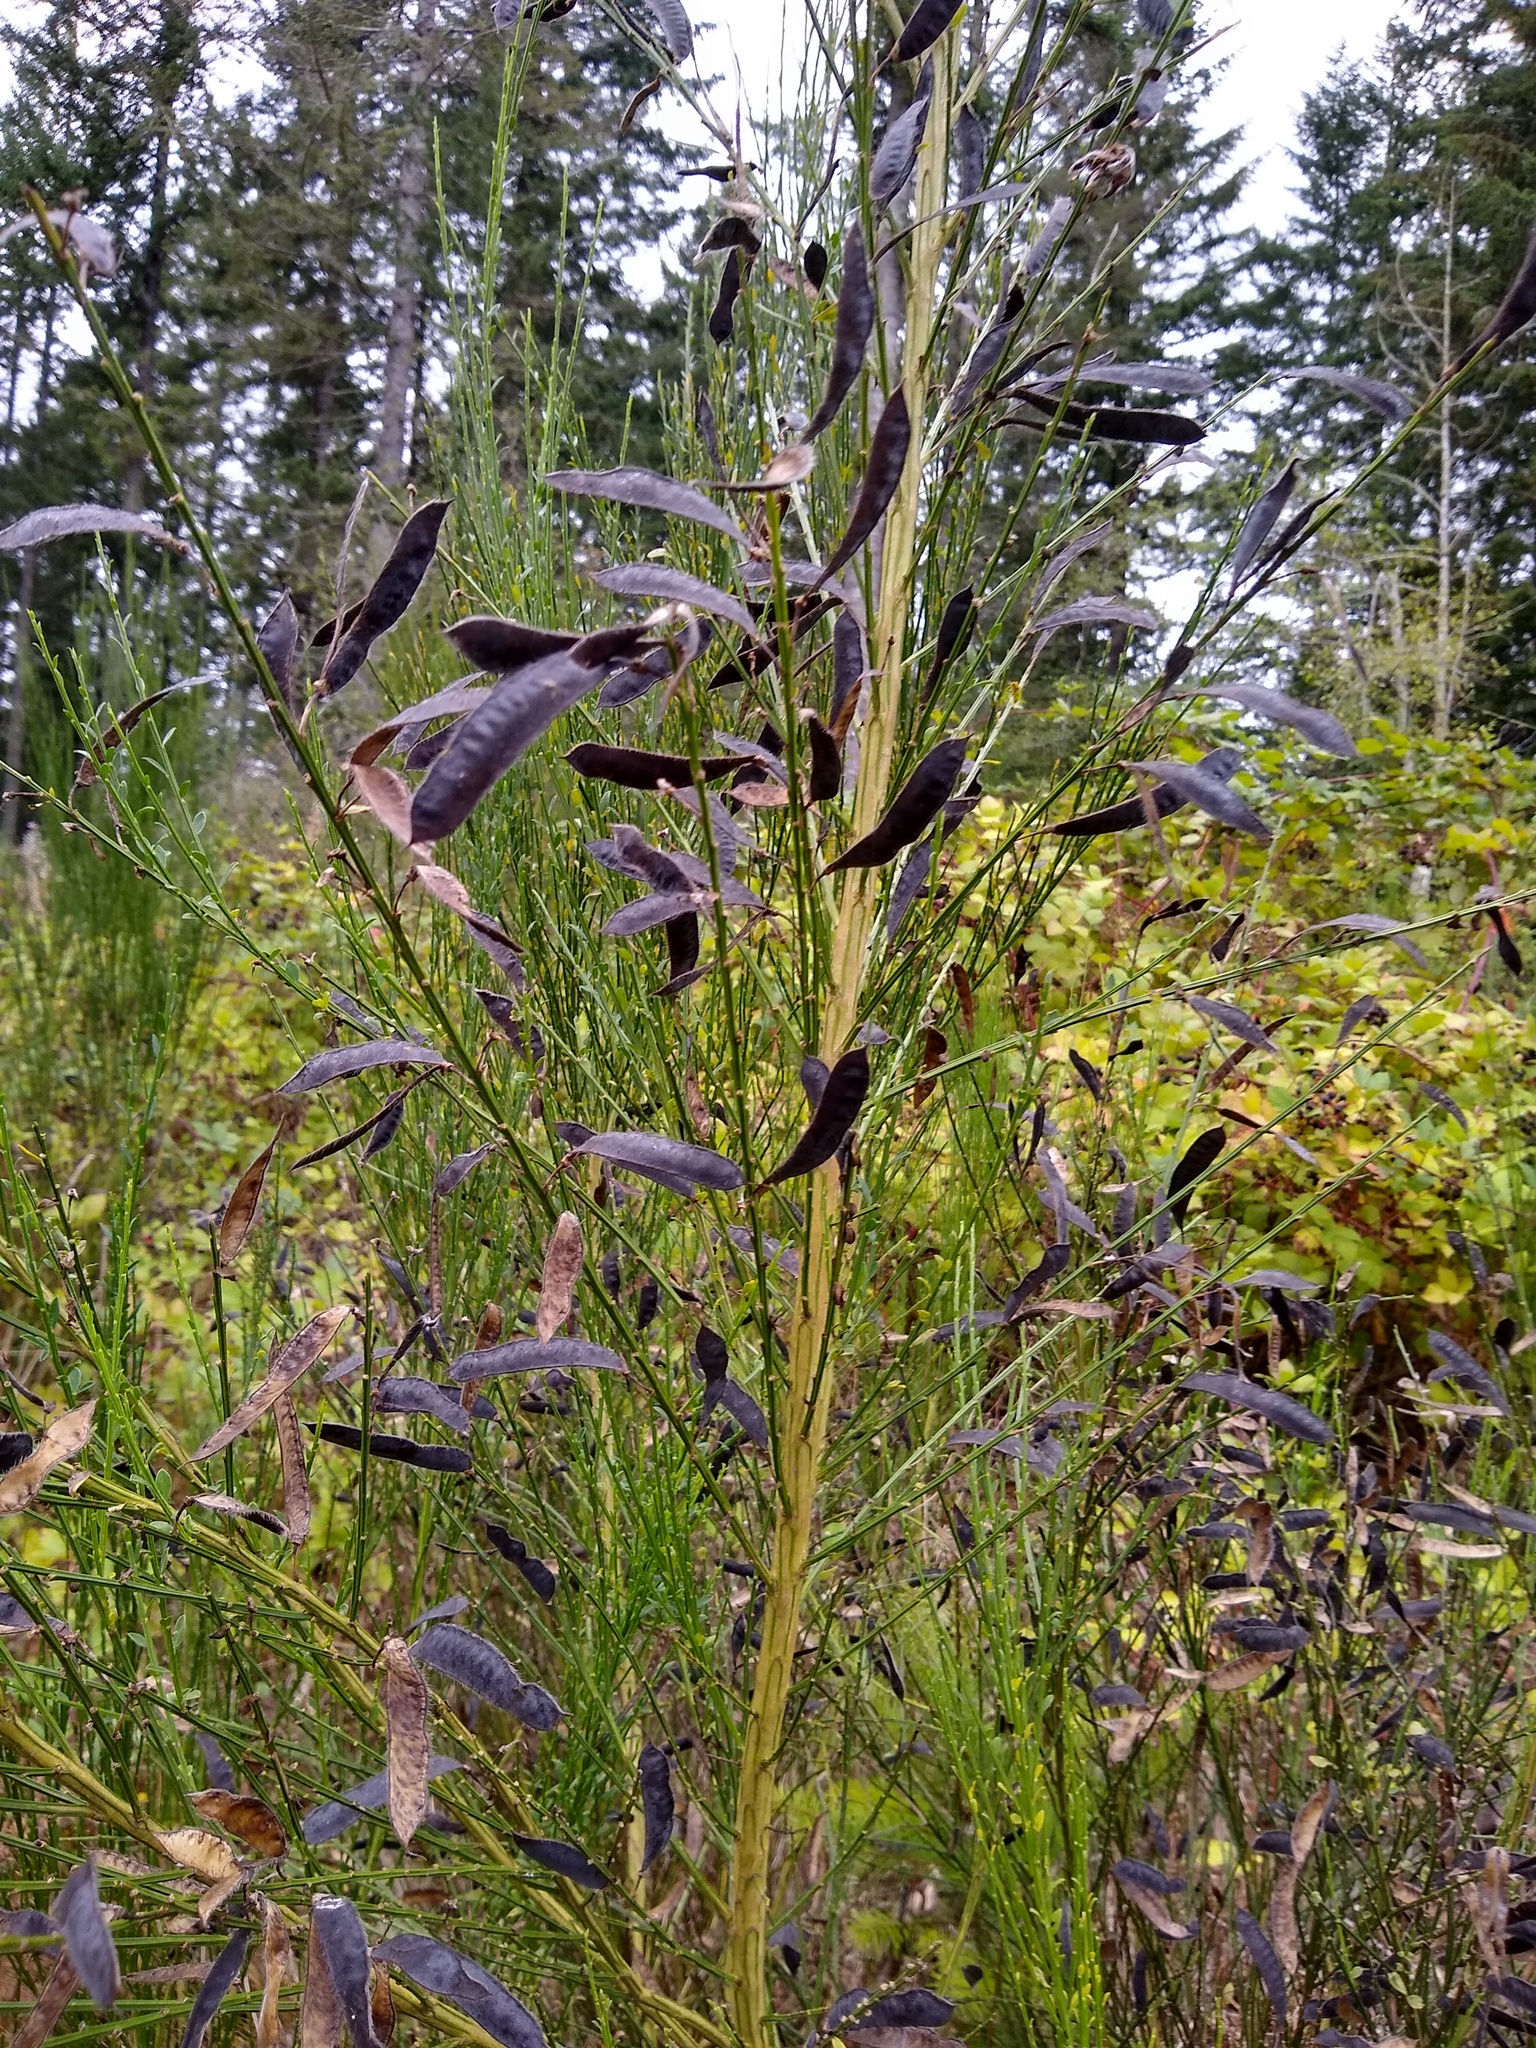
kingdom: Plantae
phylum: Tracheophyta
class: Magnoliopsida
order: Fabales
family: Fabaceae
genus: Cytisus
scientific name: Cytisus scoparius
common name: Scotch broom
